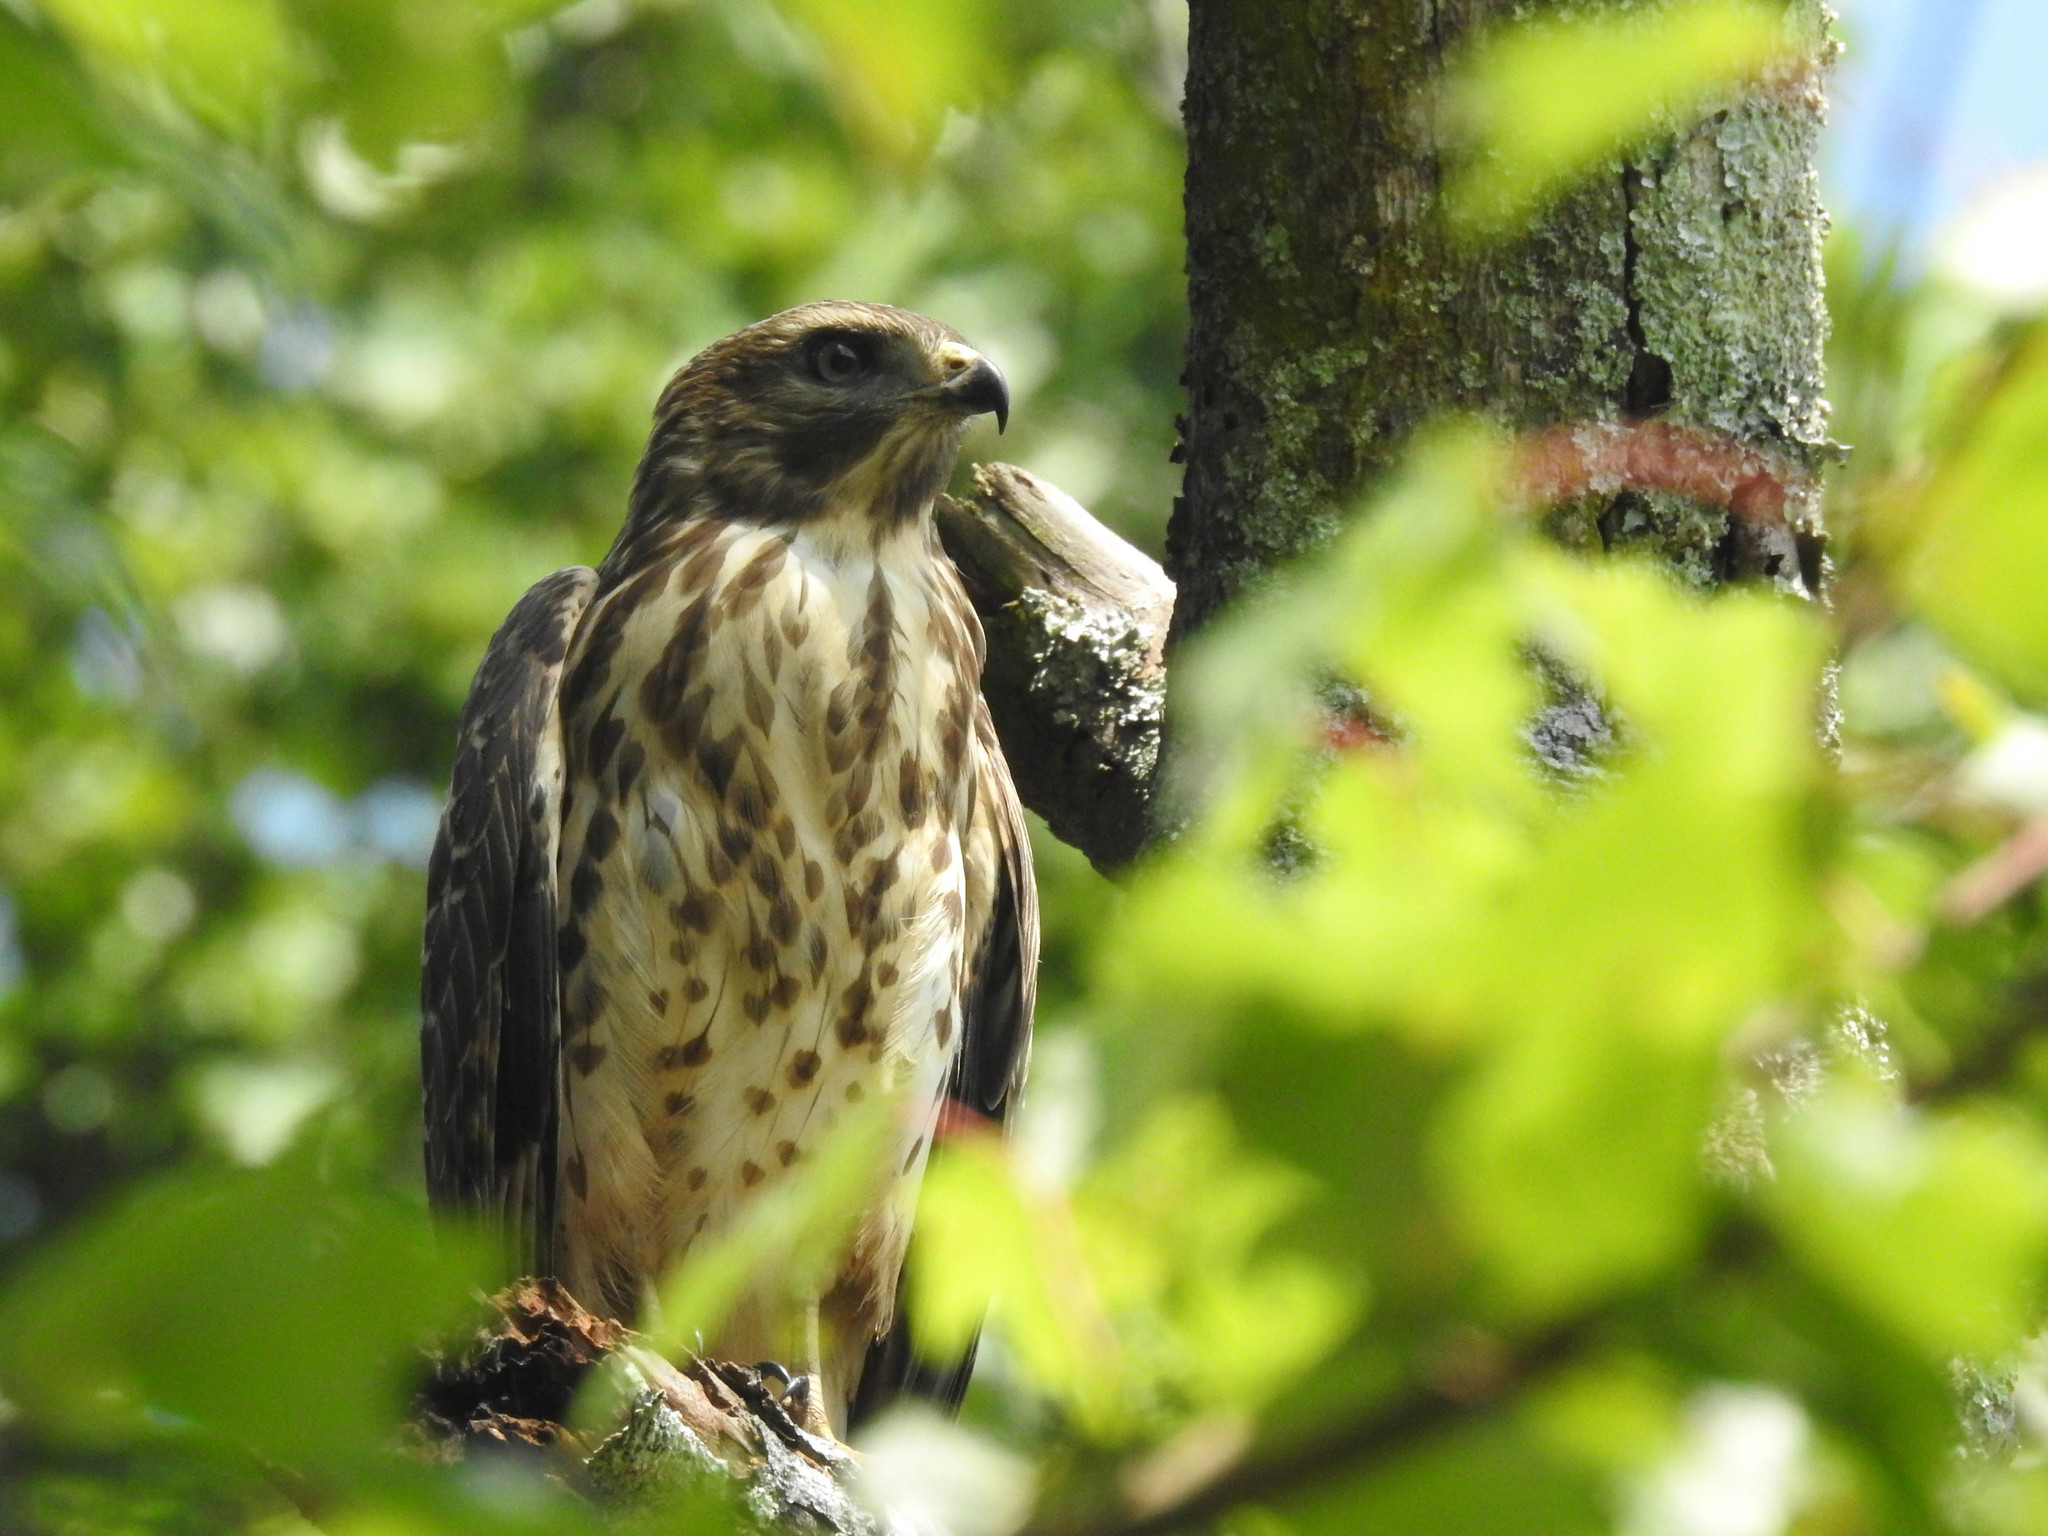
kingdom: Animalia
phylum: Chordata
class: Aves
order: Accipitriformes
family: Accipitridae
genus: Buteo
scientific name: Buteo platypterus
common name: Broad-winged hawk
